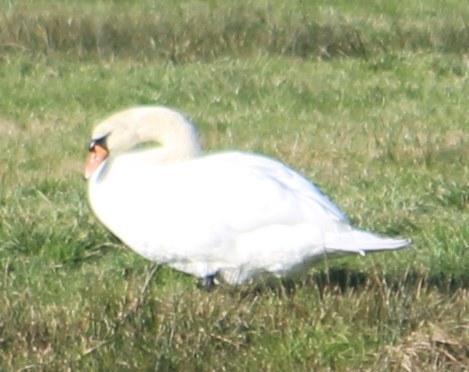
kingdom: Animalia
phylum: Chordata
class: Aves
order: Anseriformes
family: Anatidae
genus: Cygnus
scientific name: Cygnus olor
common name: Mute swan
